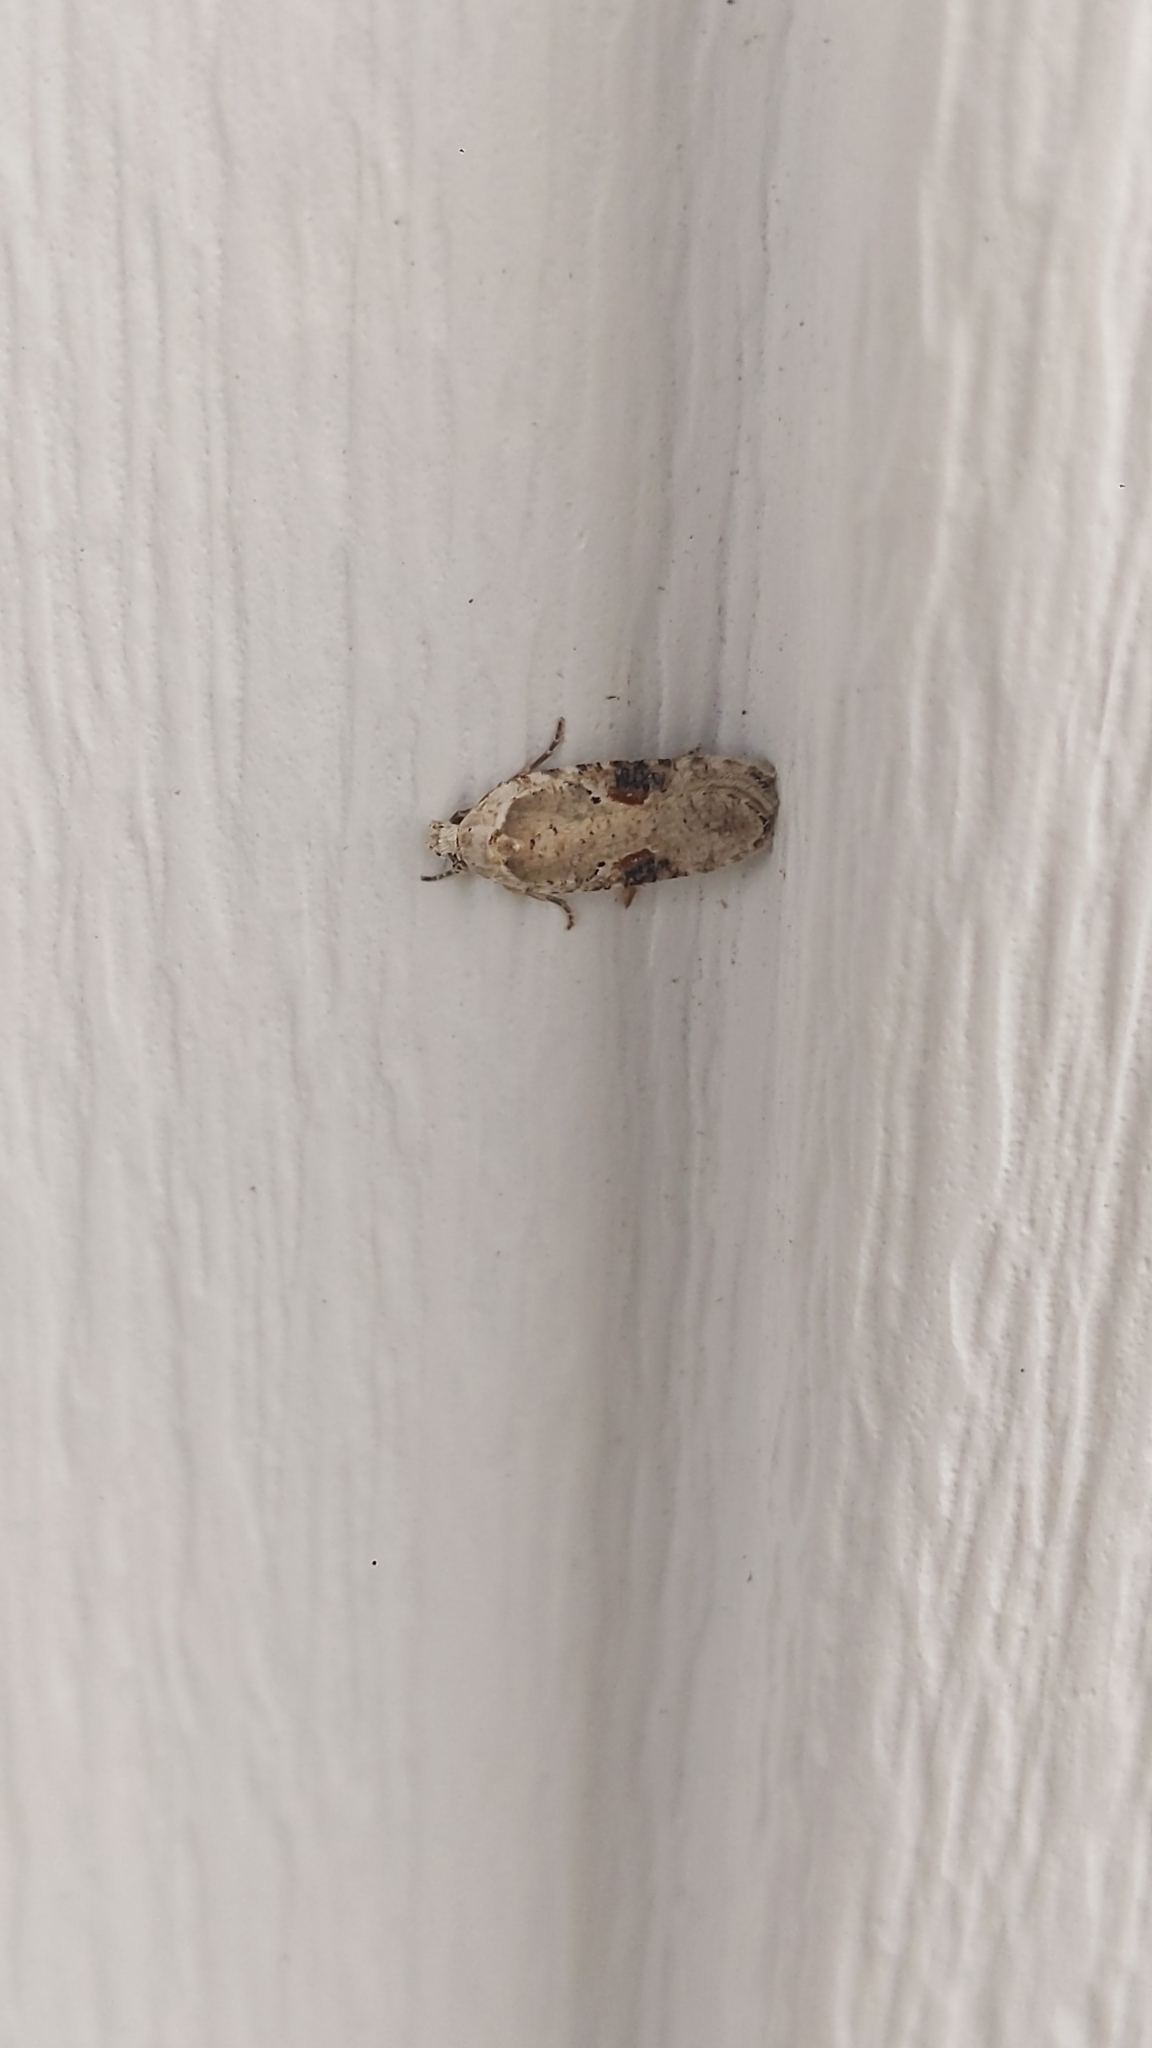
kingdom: Animalia
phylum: Arthropoda
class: Insecta
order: Lepidoptera
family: Depressariidae
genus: Agonopterix
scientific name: Agonopterix alstroemeriana
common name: Moth
